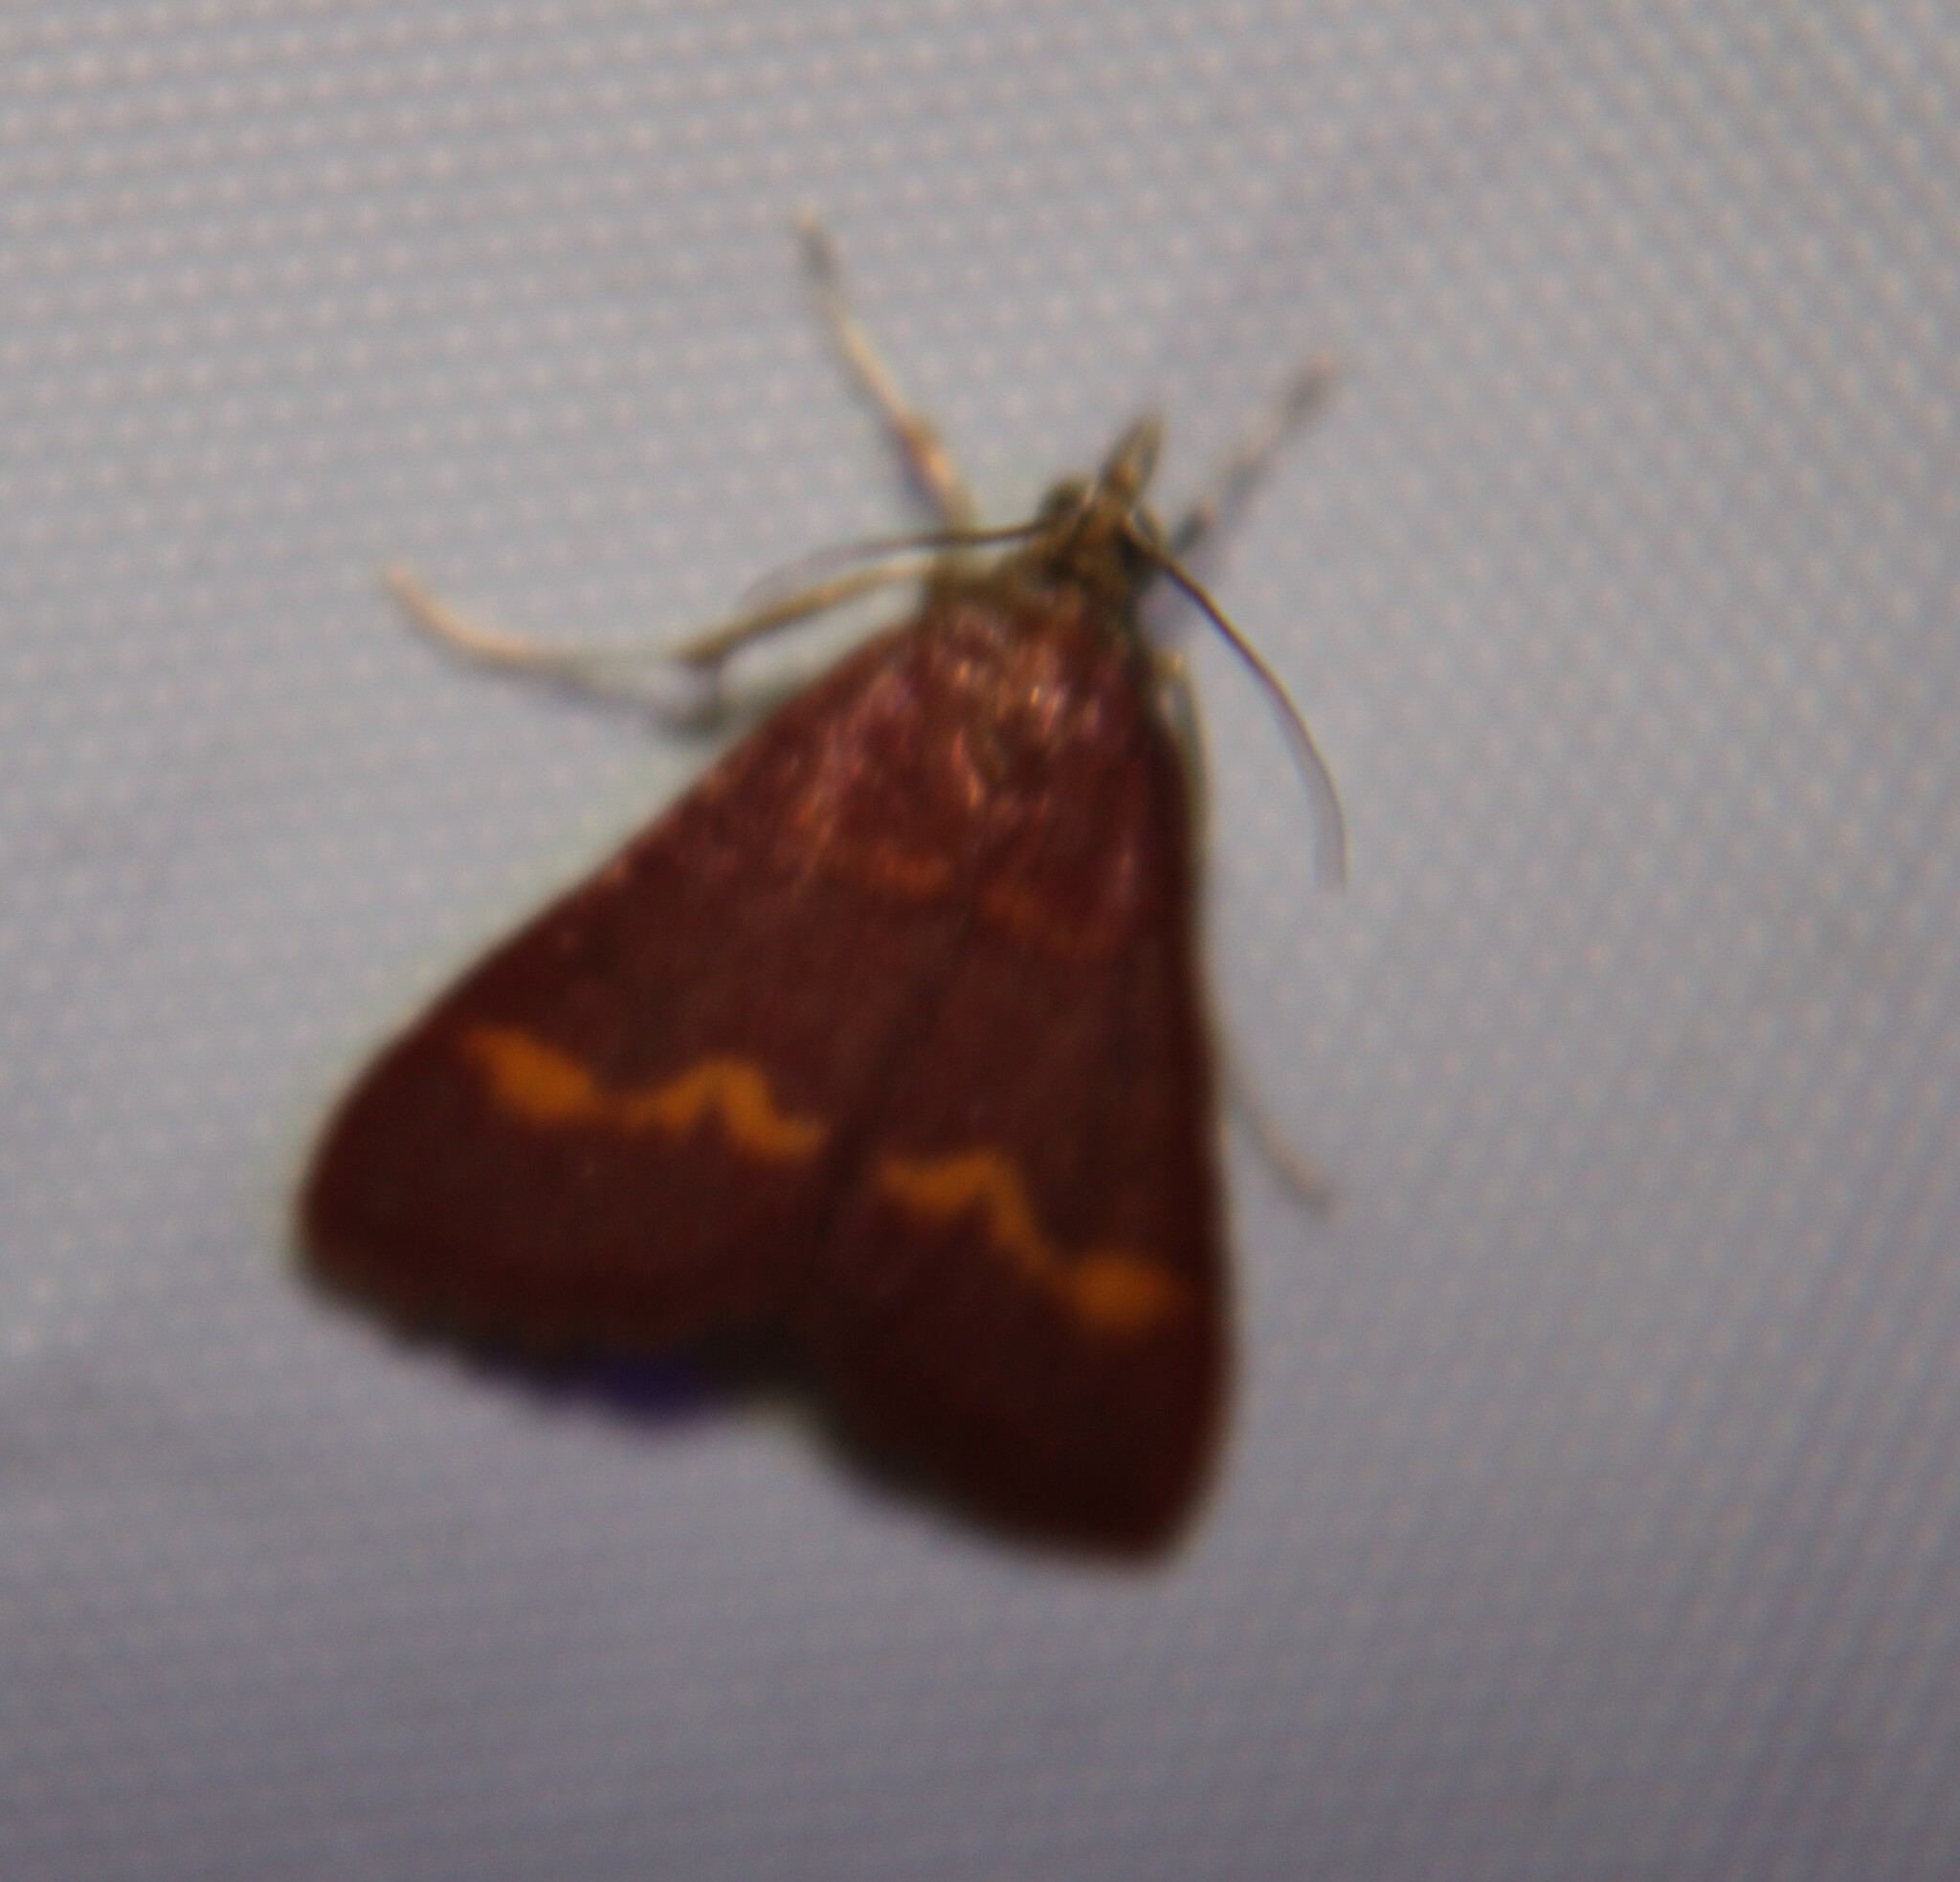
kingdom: Animalia
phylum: Arthropoda
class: Insecta
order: Lepidoptera
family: Crambidae
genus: Pyrausta
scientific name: Pyrausta pseuderosnealis
